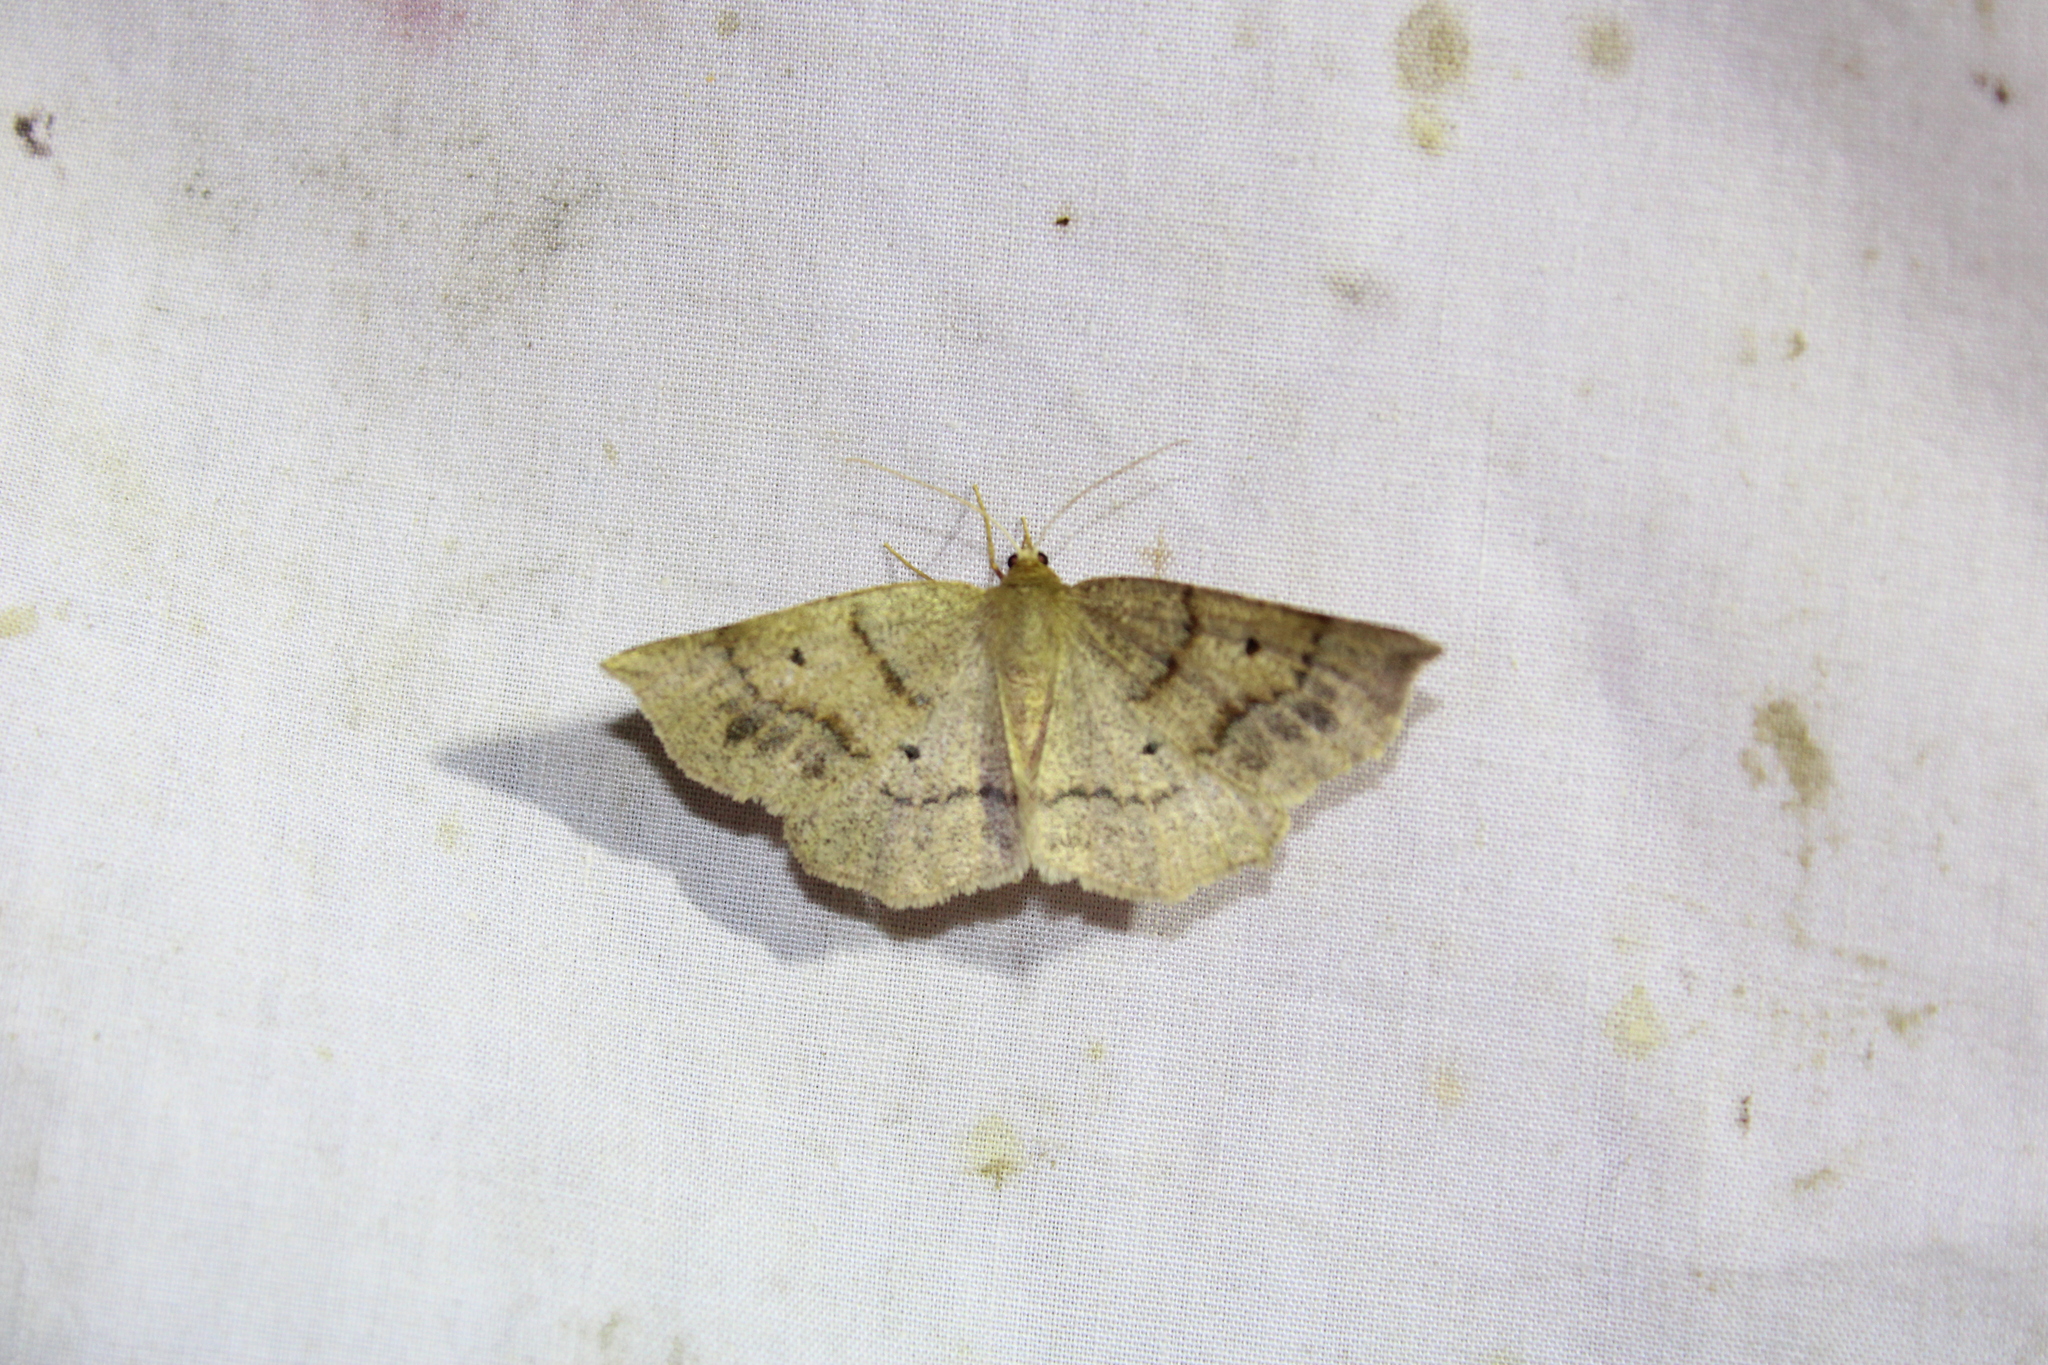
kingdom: Animalia
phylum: Arthropoda
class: Insecta
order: Lepidoptera
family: Geometridae
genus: Metarranthis
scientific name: Metarranthis duaria
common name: Ruddy metarranthis moth
